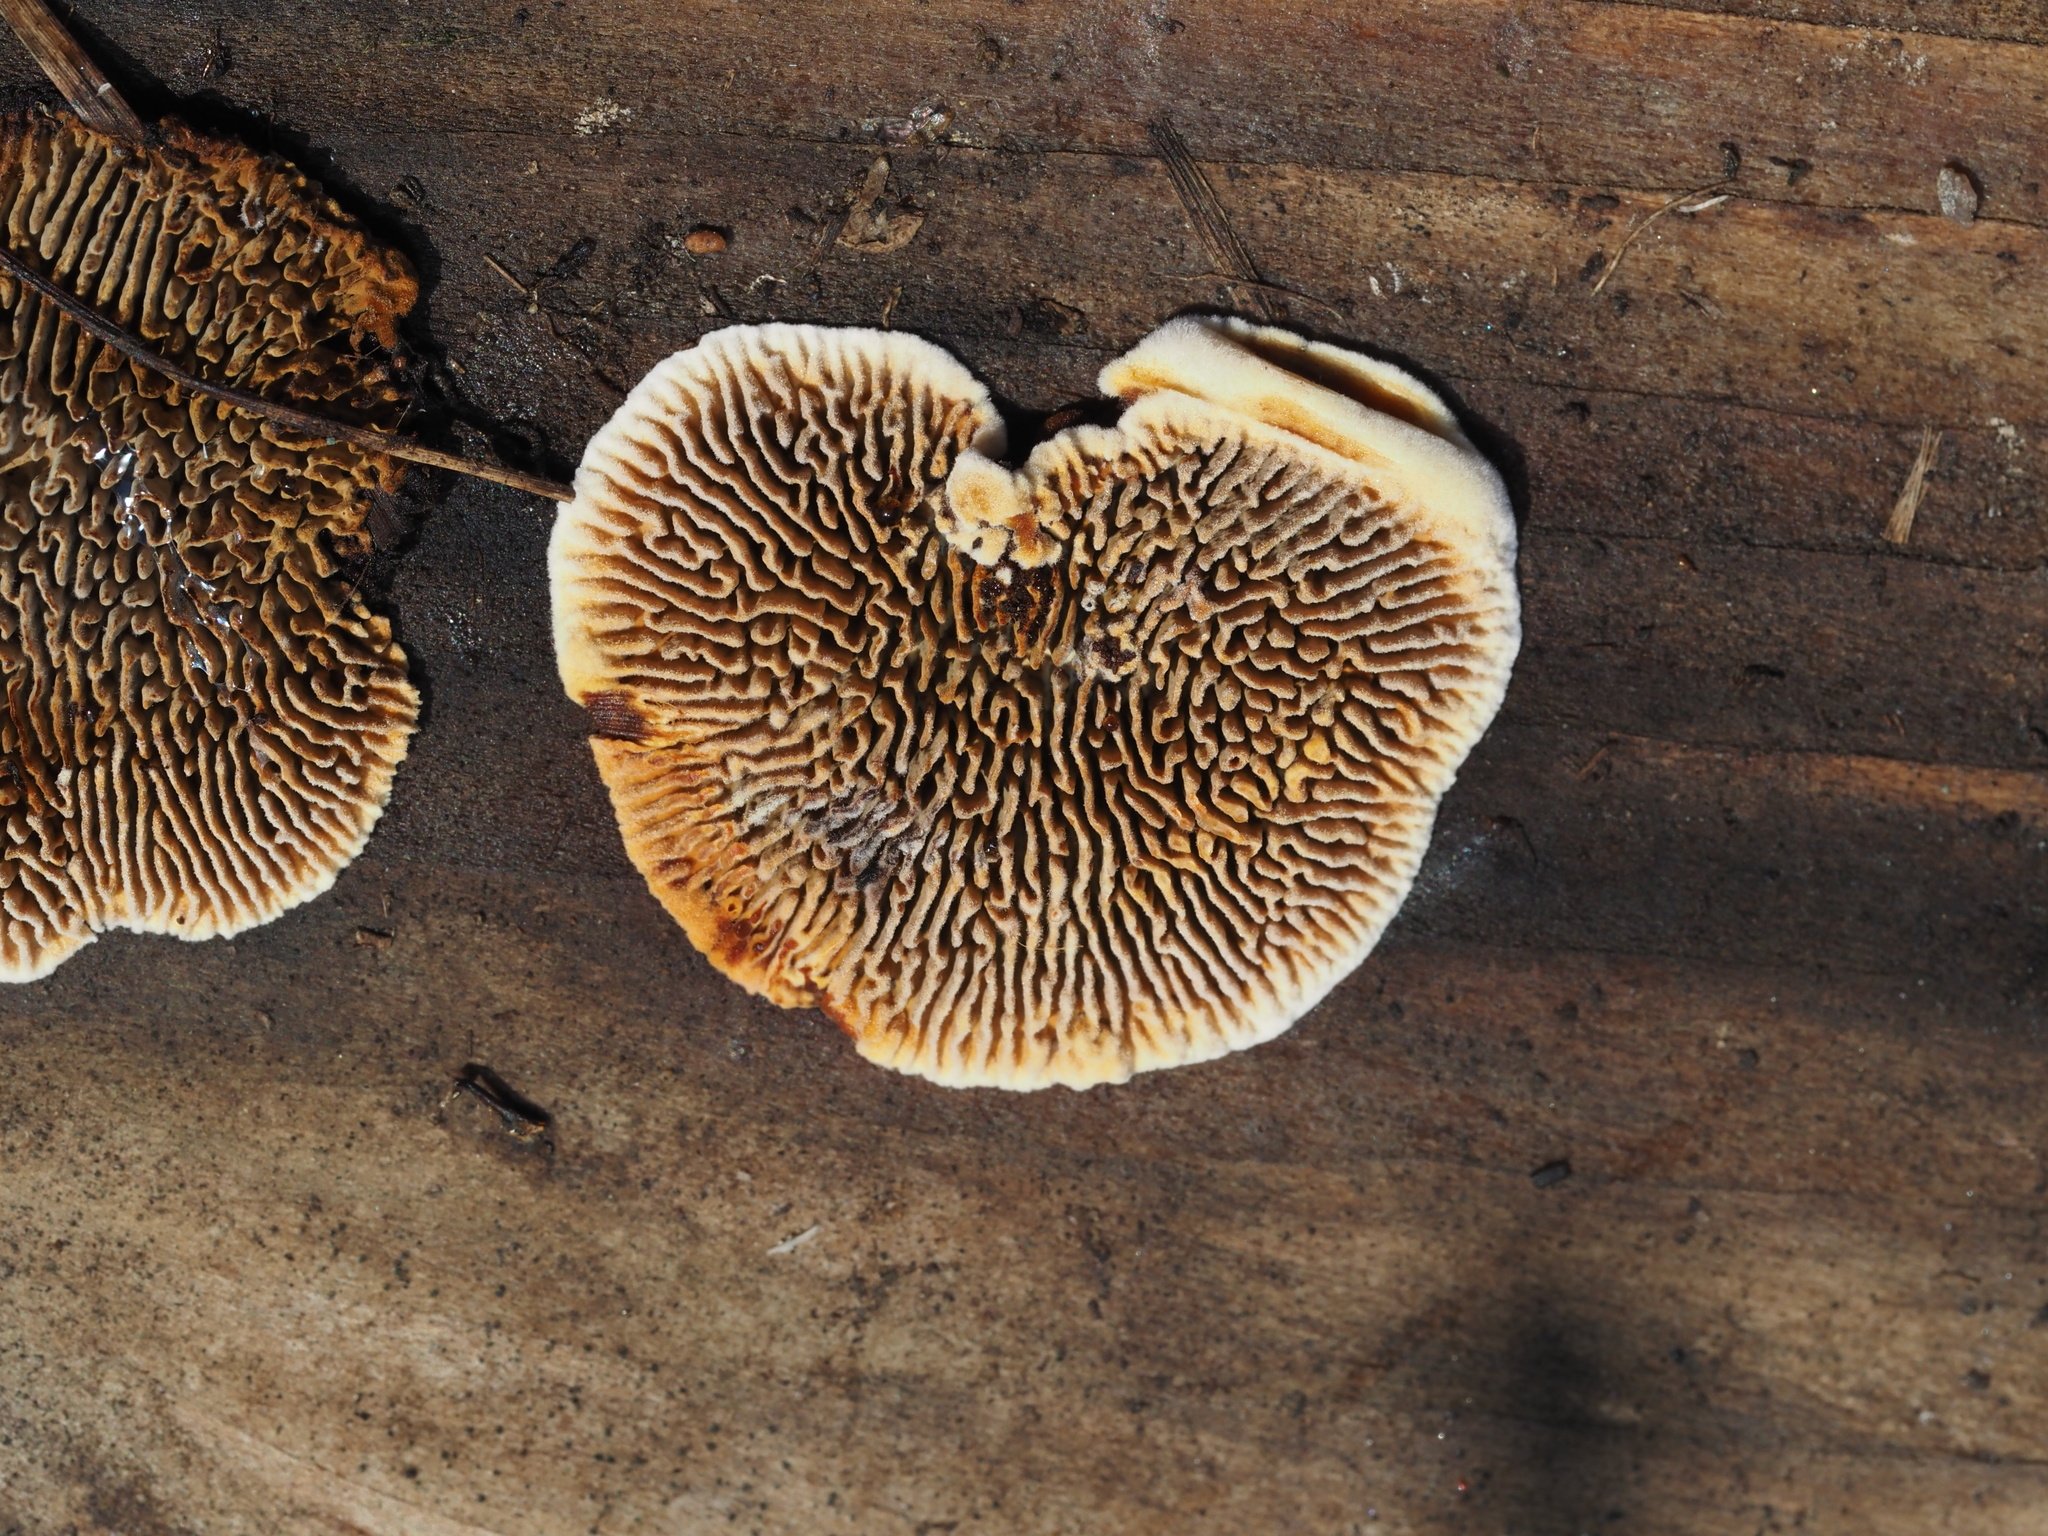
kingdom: Fungi
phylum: Basidiomycota
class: Agaricomycetes
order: Gloeophyllales
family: Gloeophyllaceae
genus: Gloeophyllum
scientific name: Gloeophyllum sepiarium
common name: Conifer mazegill
